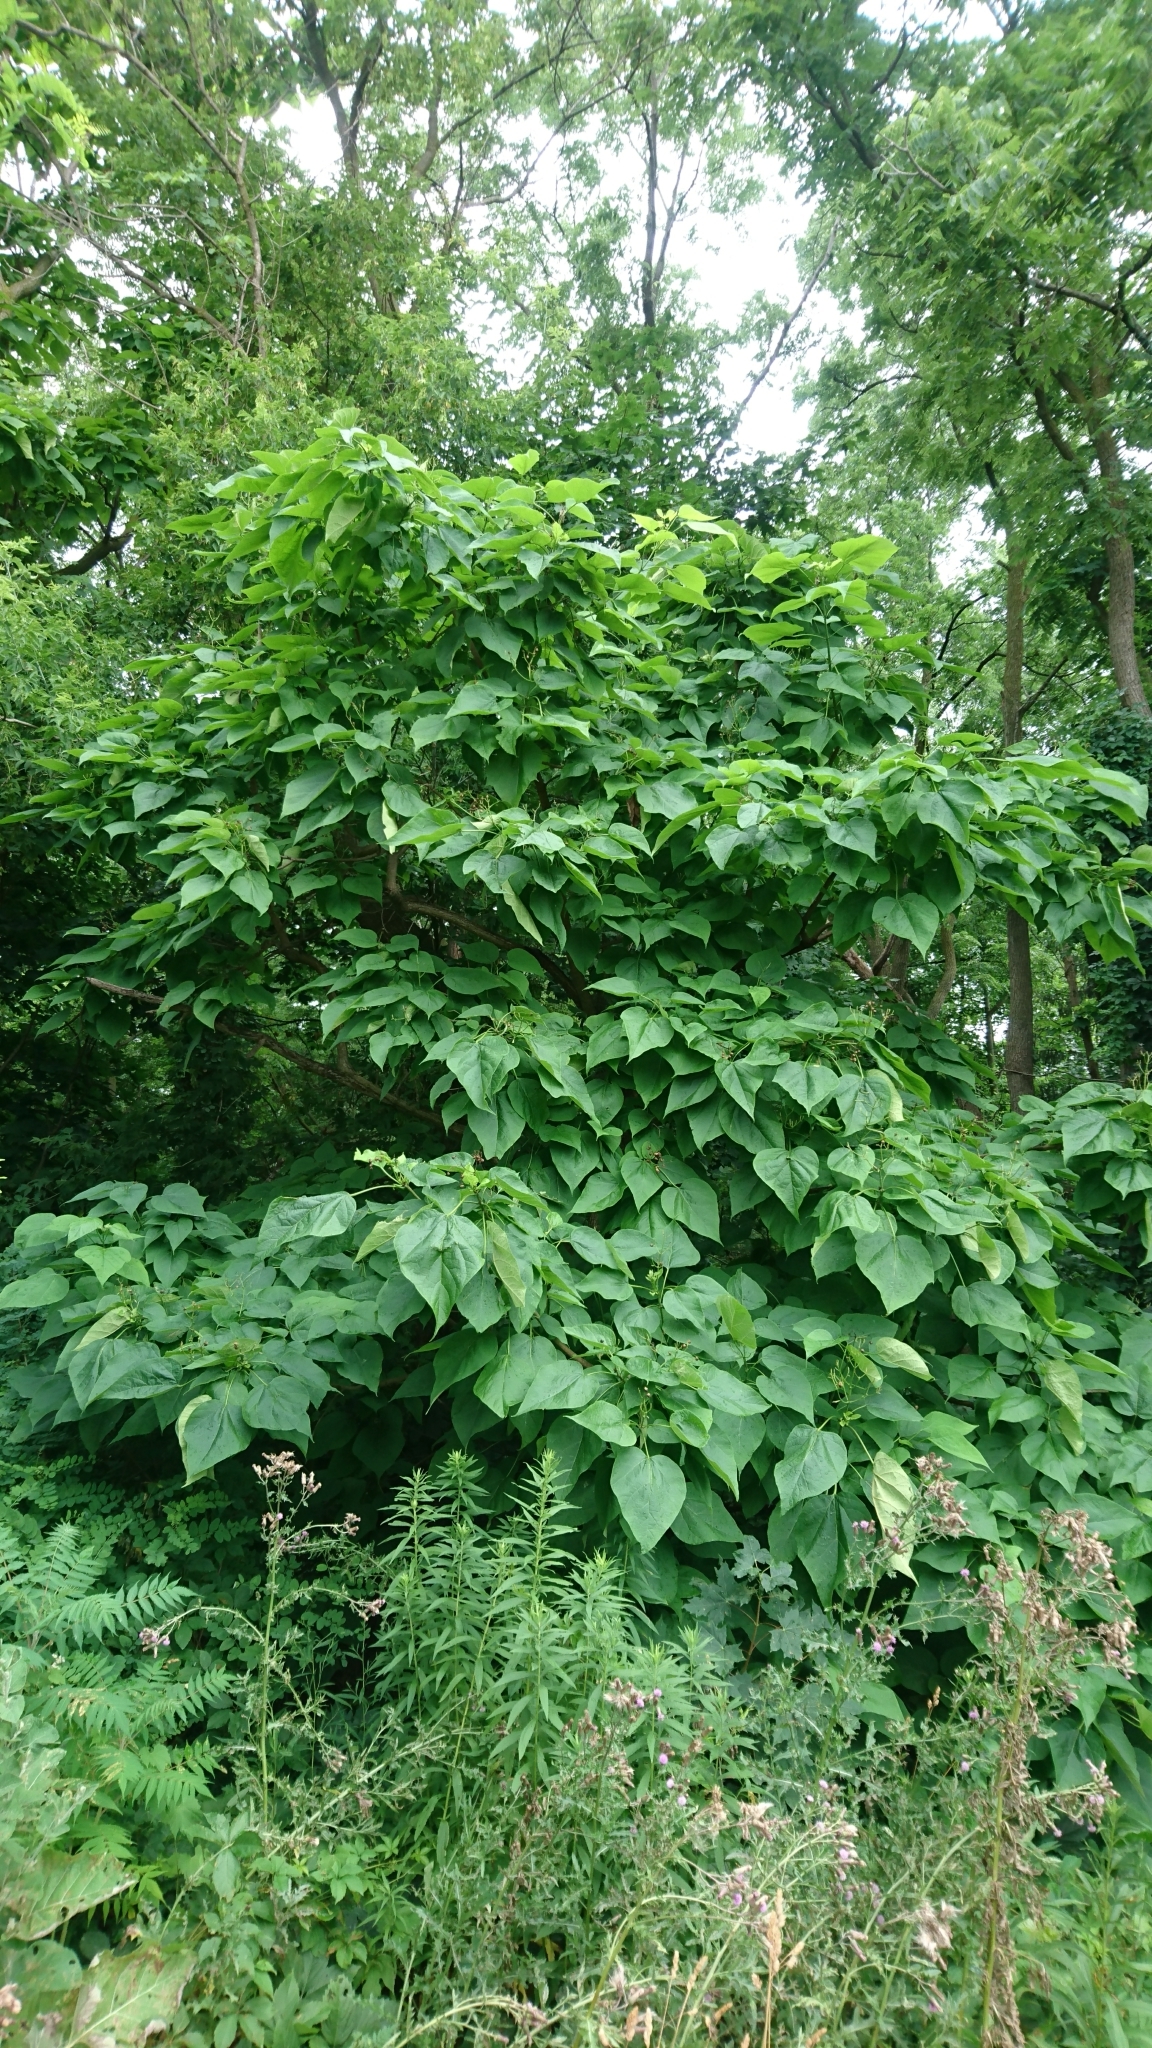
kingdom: Plantae
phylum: Tracheophyta
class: Magnoliopsida
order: Lamiales
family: Bignoniaceae
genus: Catalpa
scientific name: Catalpa speciosa
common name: Northern catalpa
